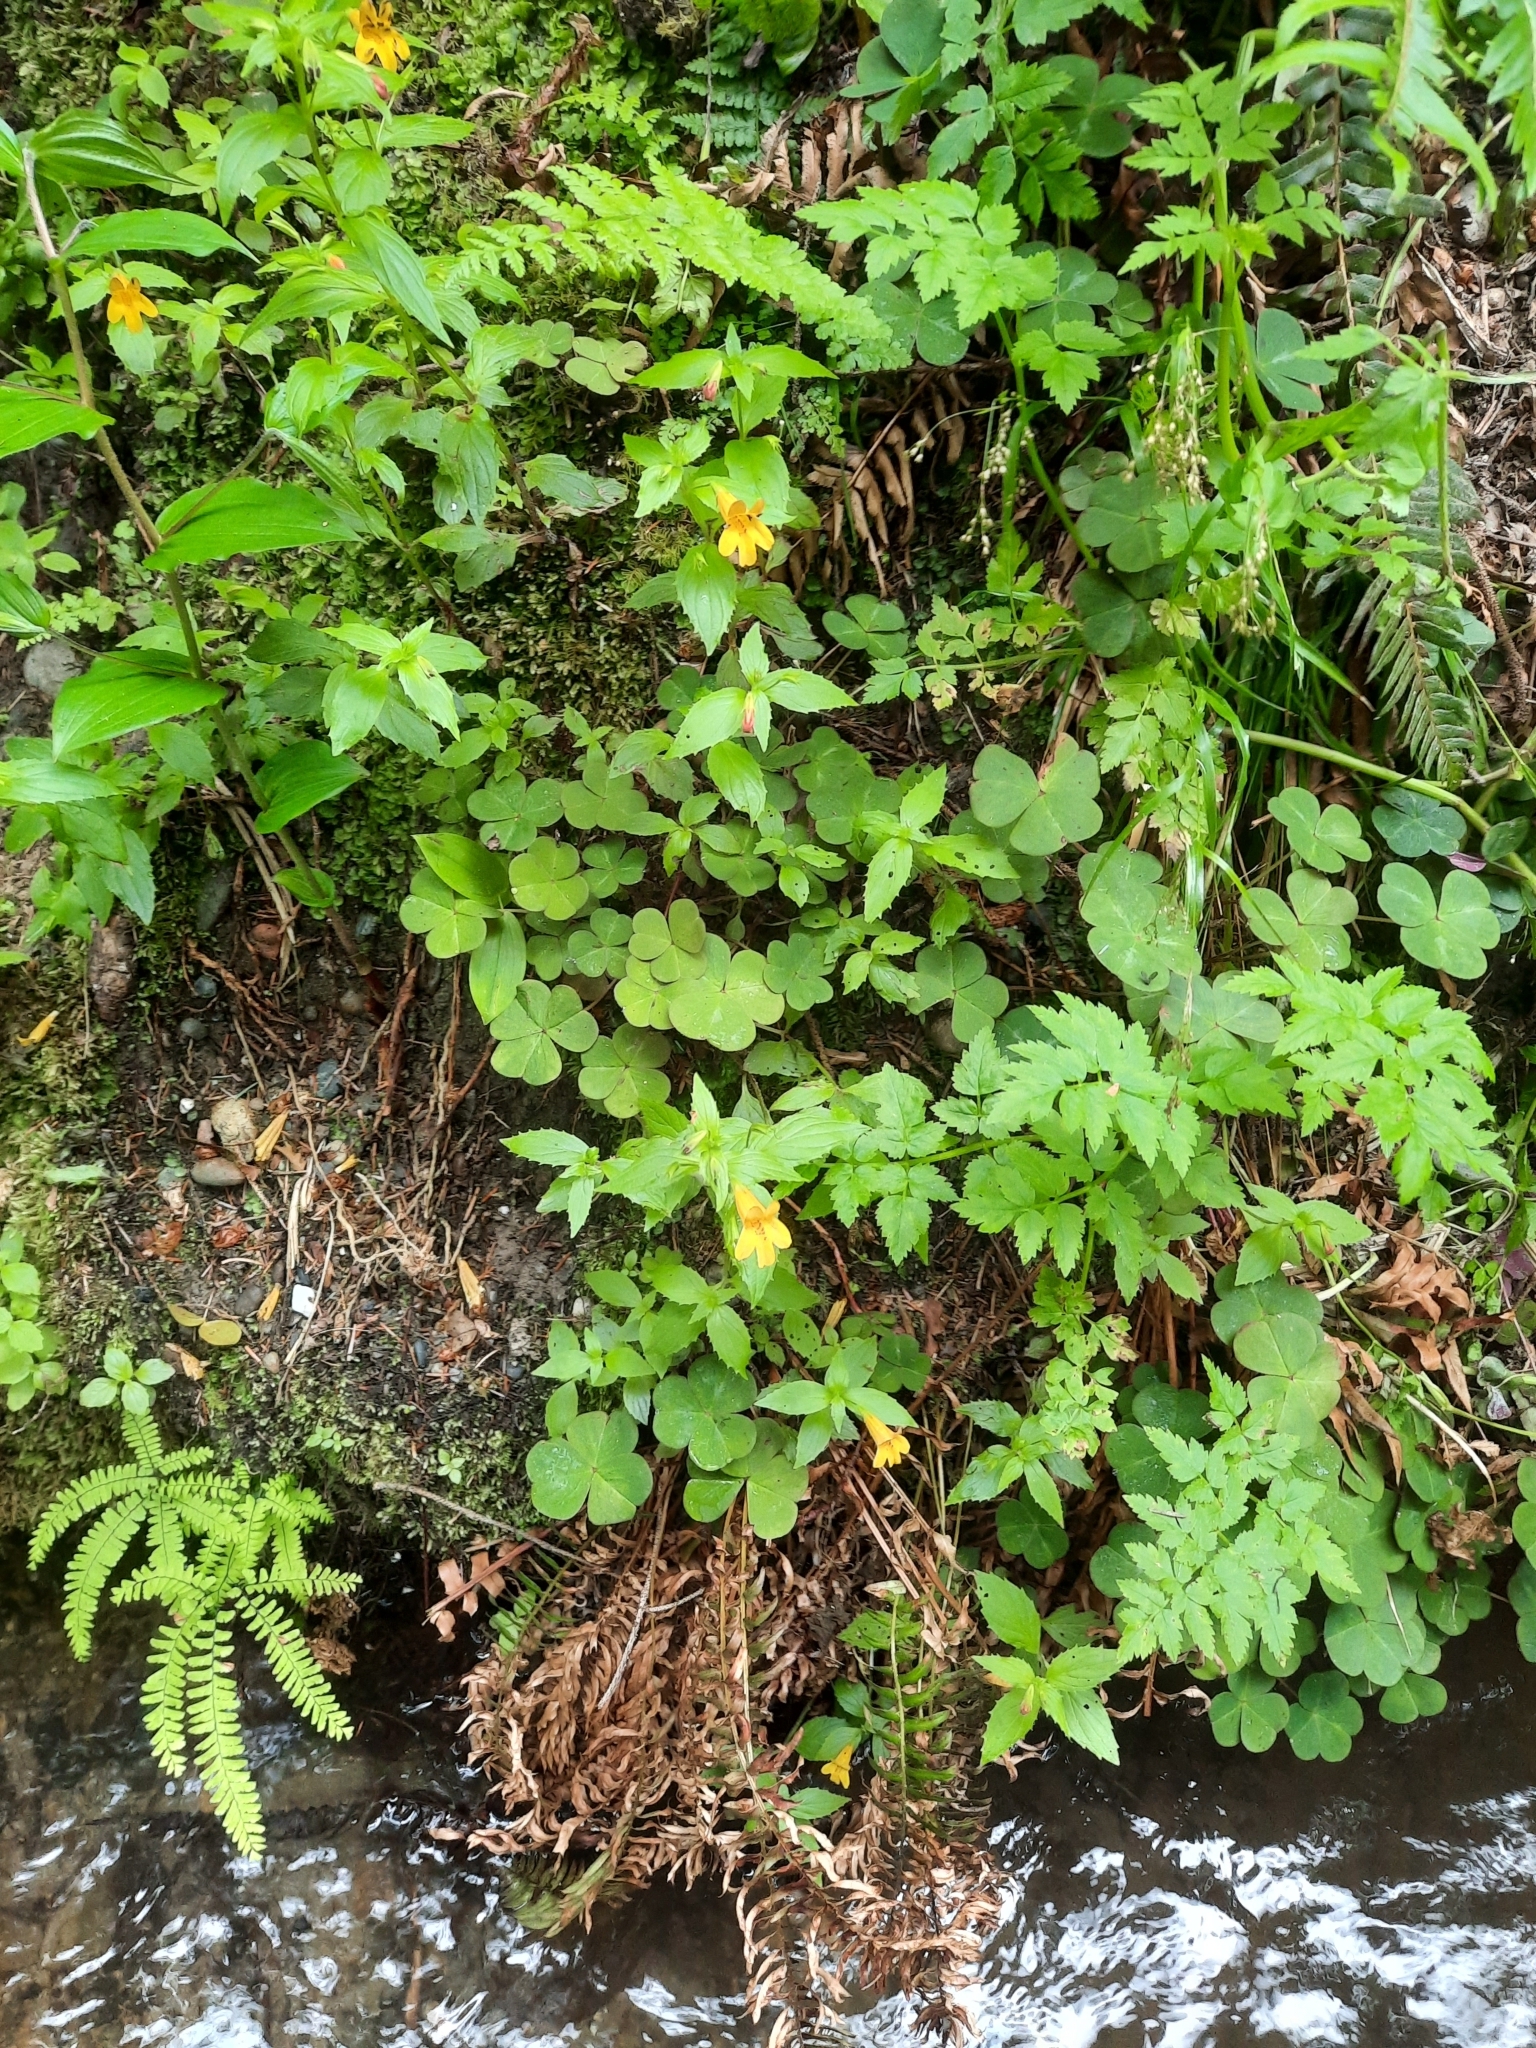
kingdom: Plantae
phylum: Tracheophyta
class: Magnoliopsida
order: Lamiales
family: Phrymaceae
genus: Erythranthe
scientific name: Erythranthe dentata
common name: Coastal monkeyflower
